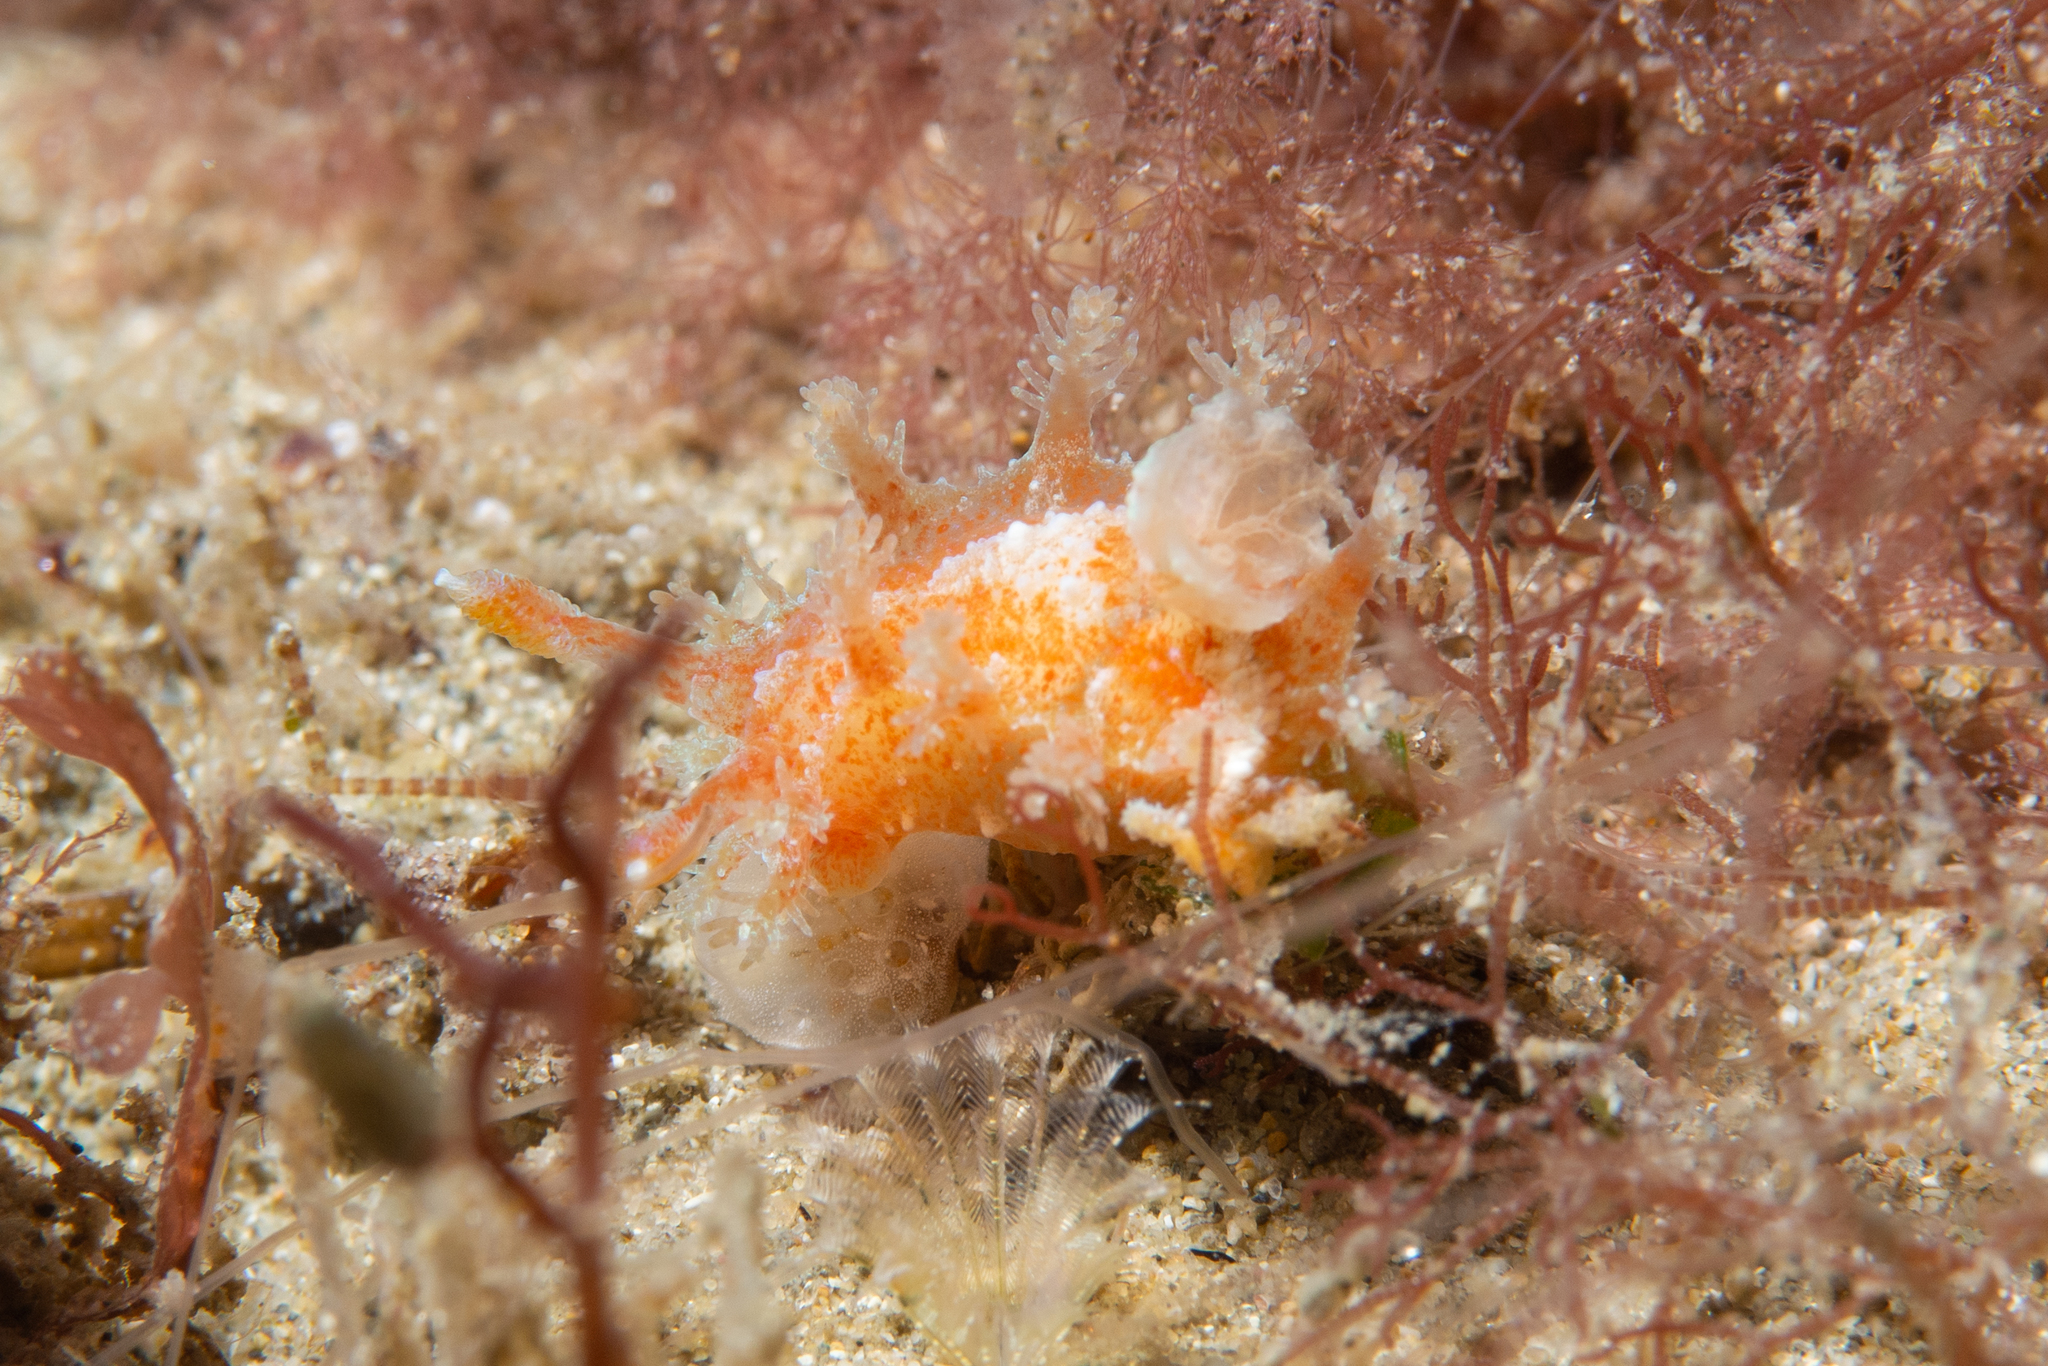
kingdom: Animalia
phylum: Mollusca
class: Gastropoda
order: Nudibranchia
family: Polyceridae
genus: Kaloplocamus
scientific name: Kaloplocamus ramosus
